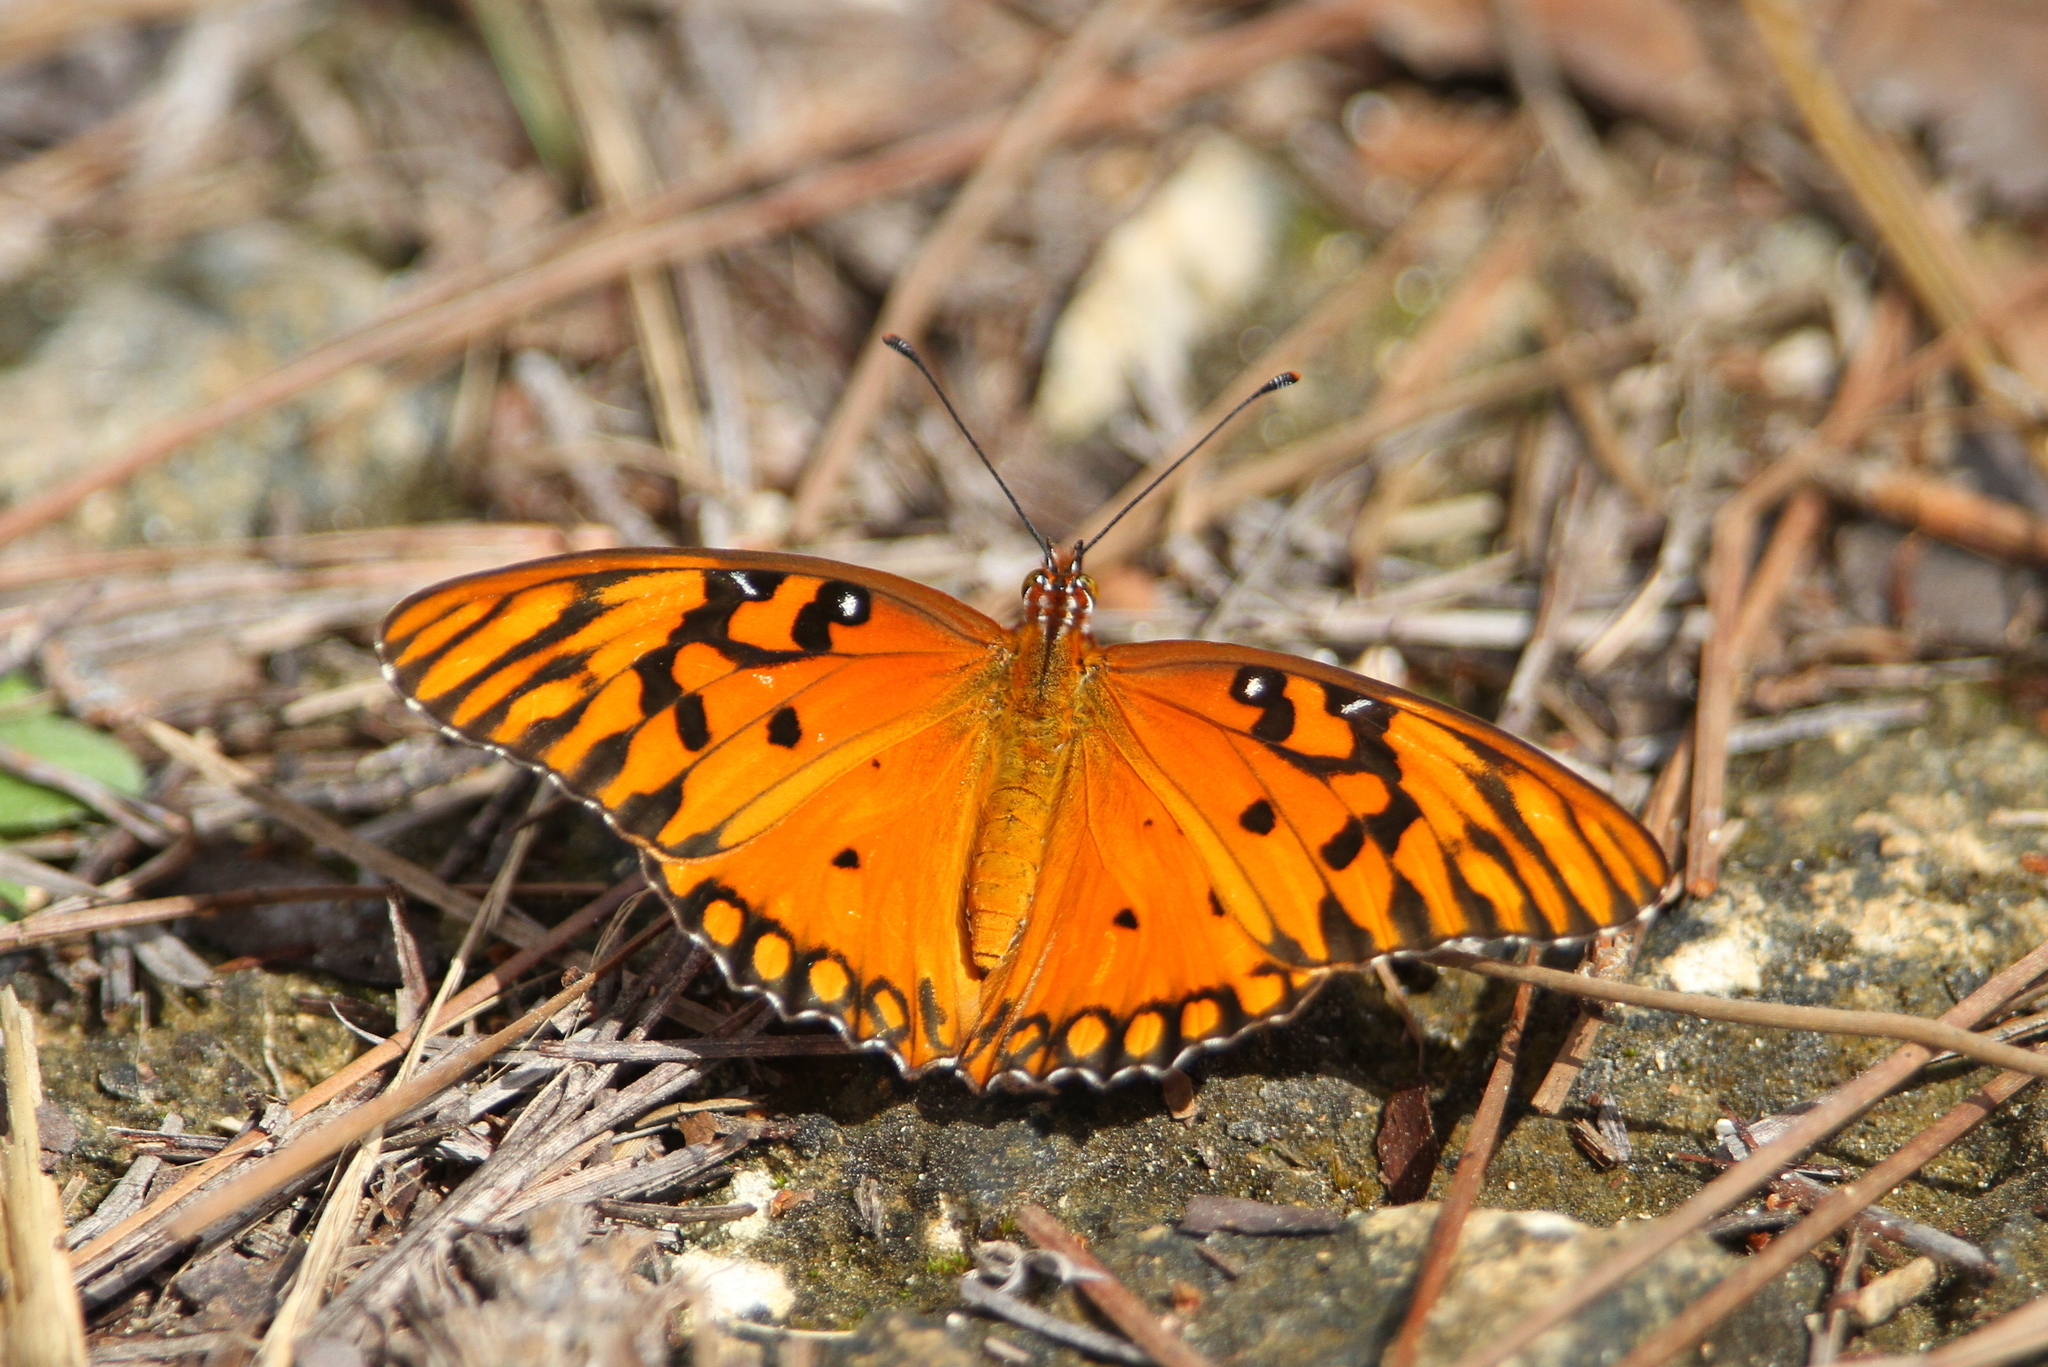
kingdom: Animalia
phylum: Arthropoda
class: Insecta
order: Lepidoptera
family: Nymphalidae
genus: Dione
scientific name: Dione vanillae
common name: Gulf fritillary
